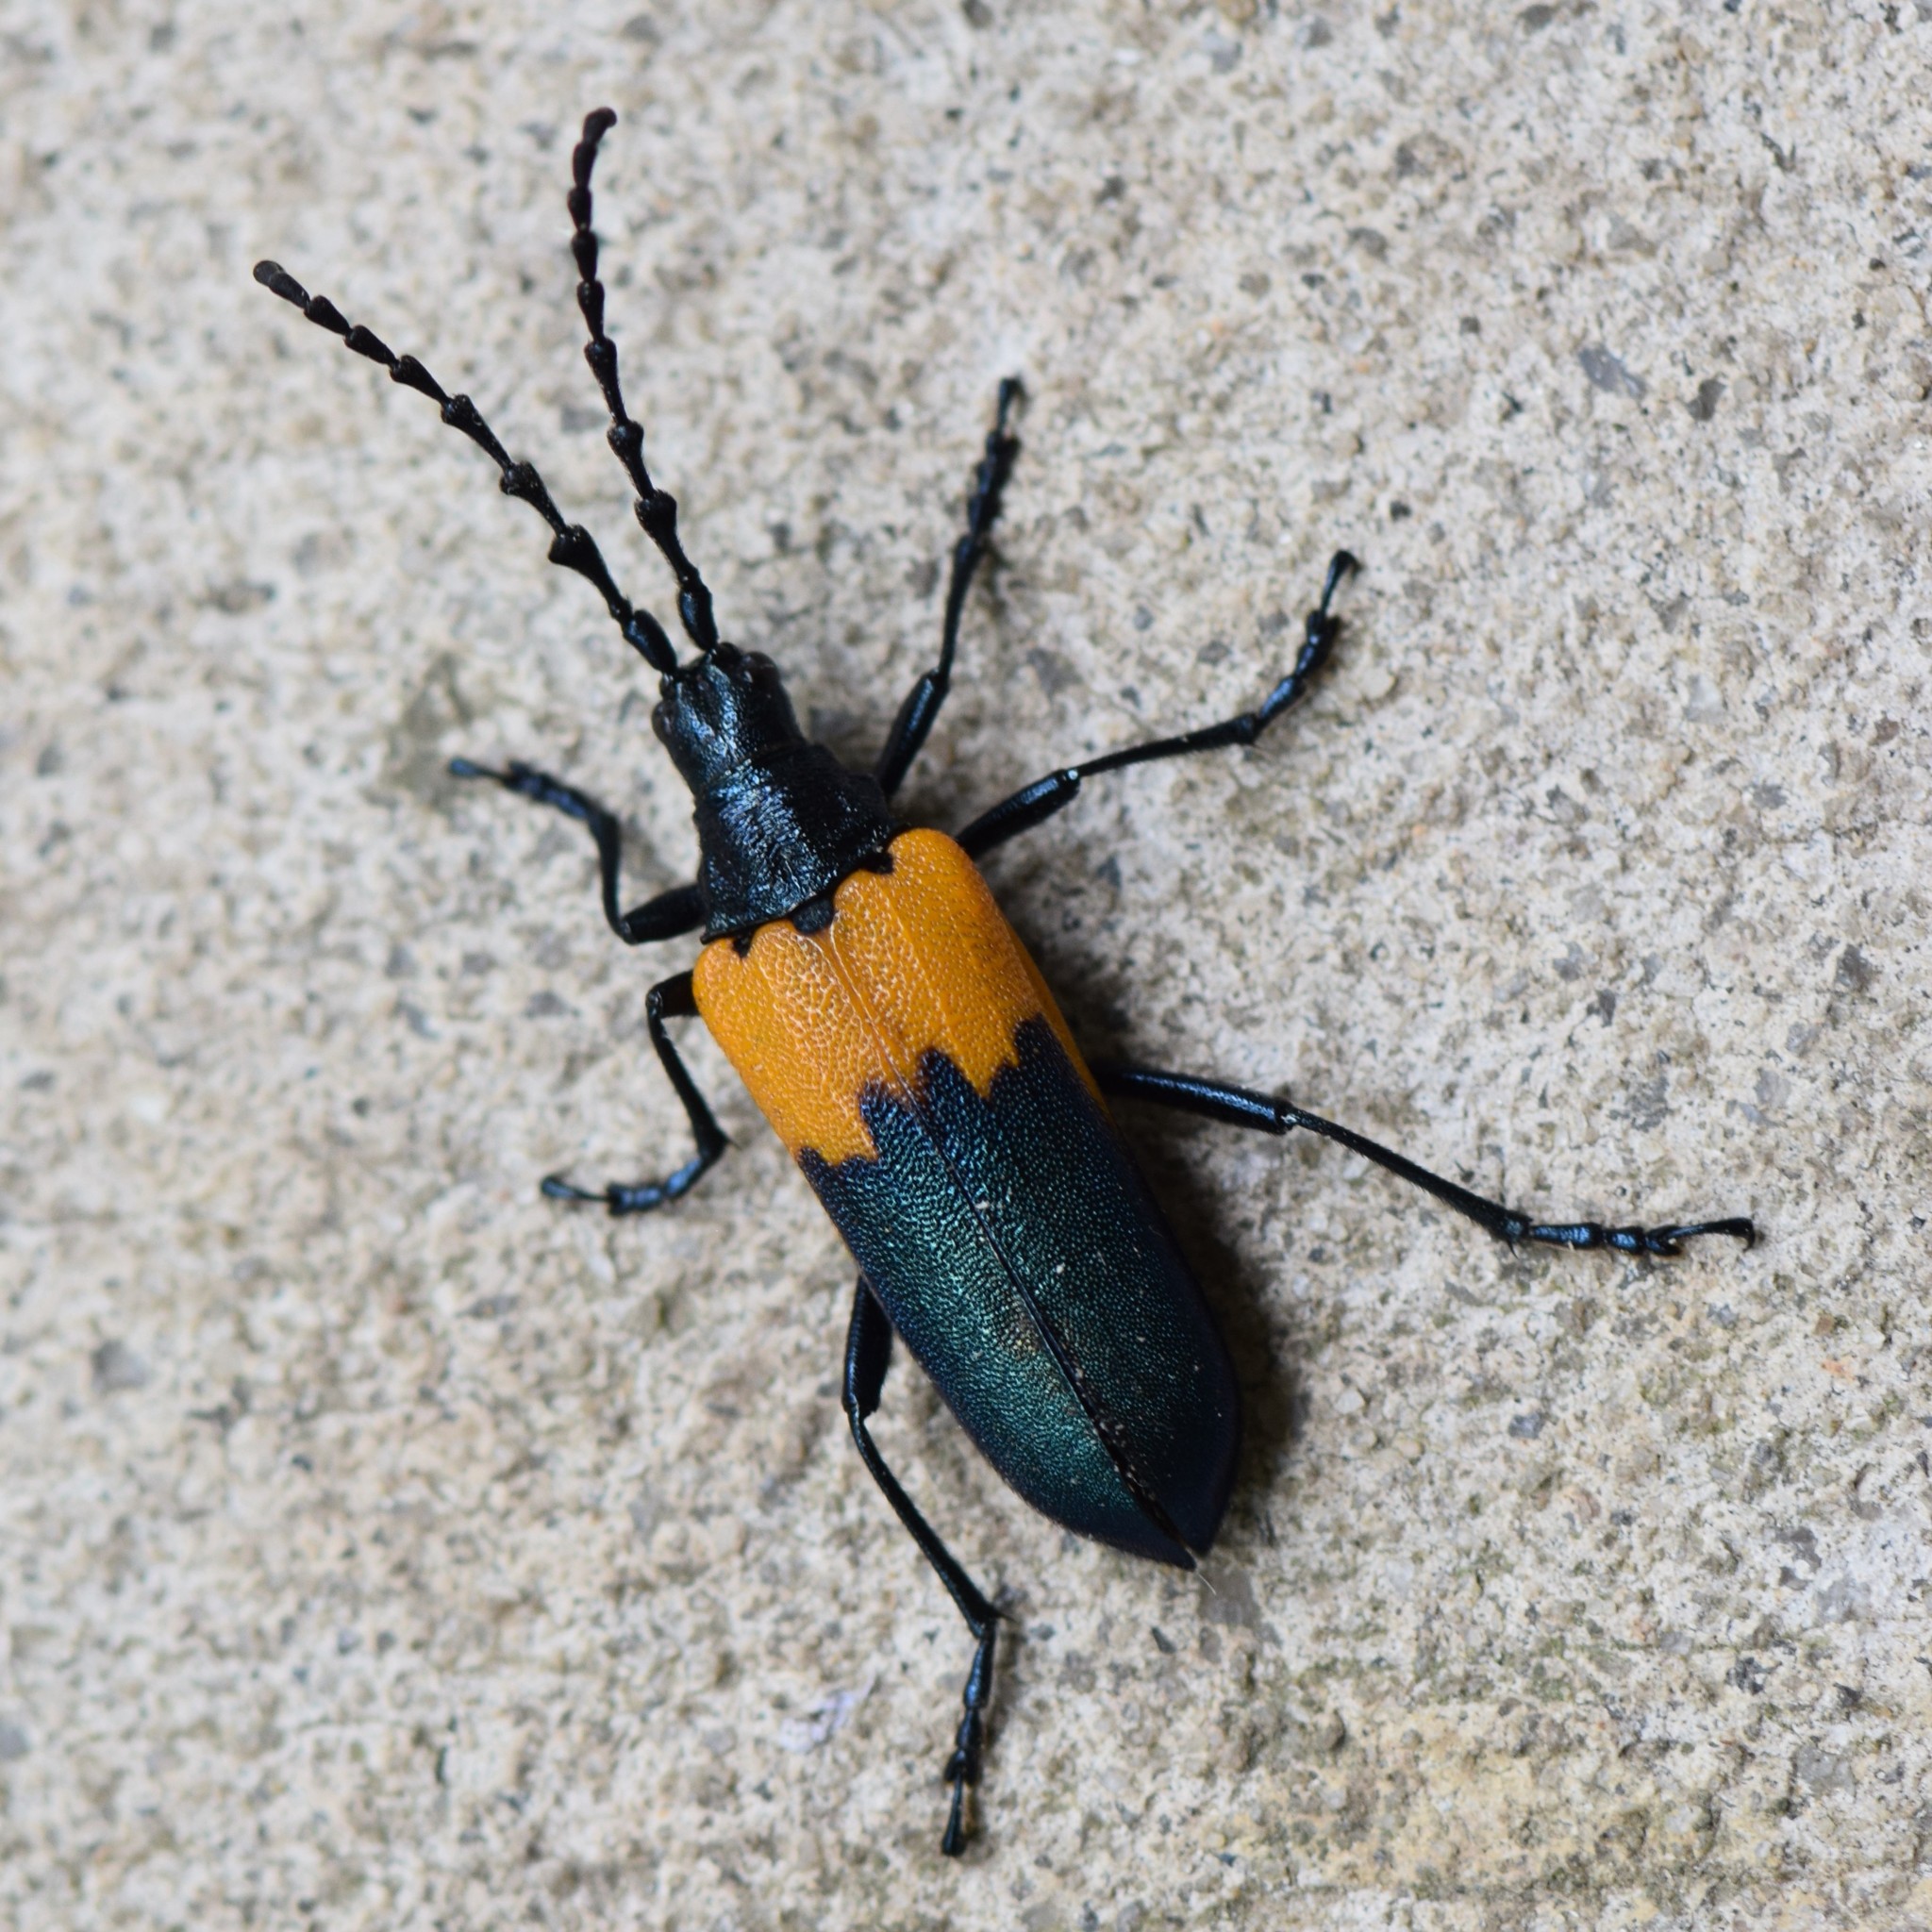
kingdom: Animalia
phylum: Arthropoda
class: Insecta
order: Coleoptera
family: Cerambycidae
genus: Desmocerus
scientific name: Desmocerus palliatus
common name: Eastern elderberry borer
